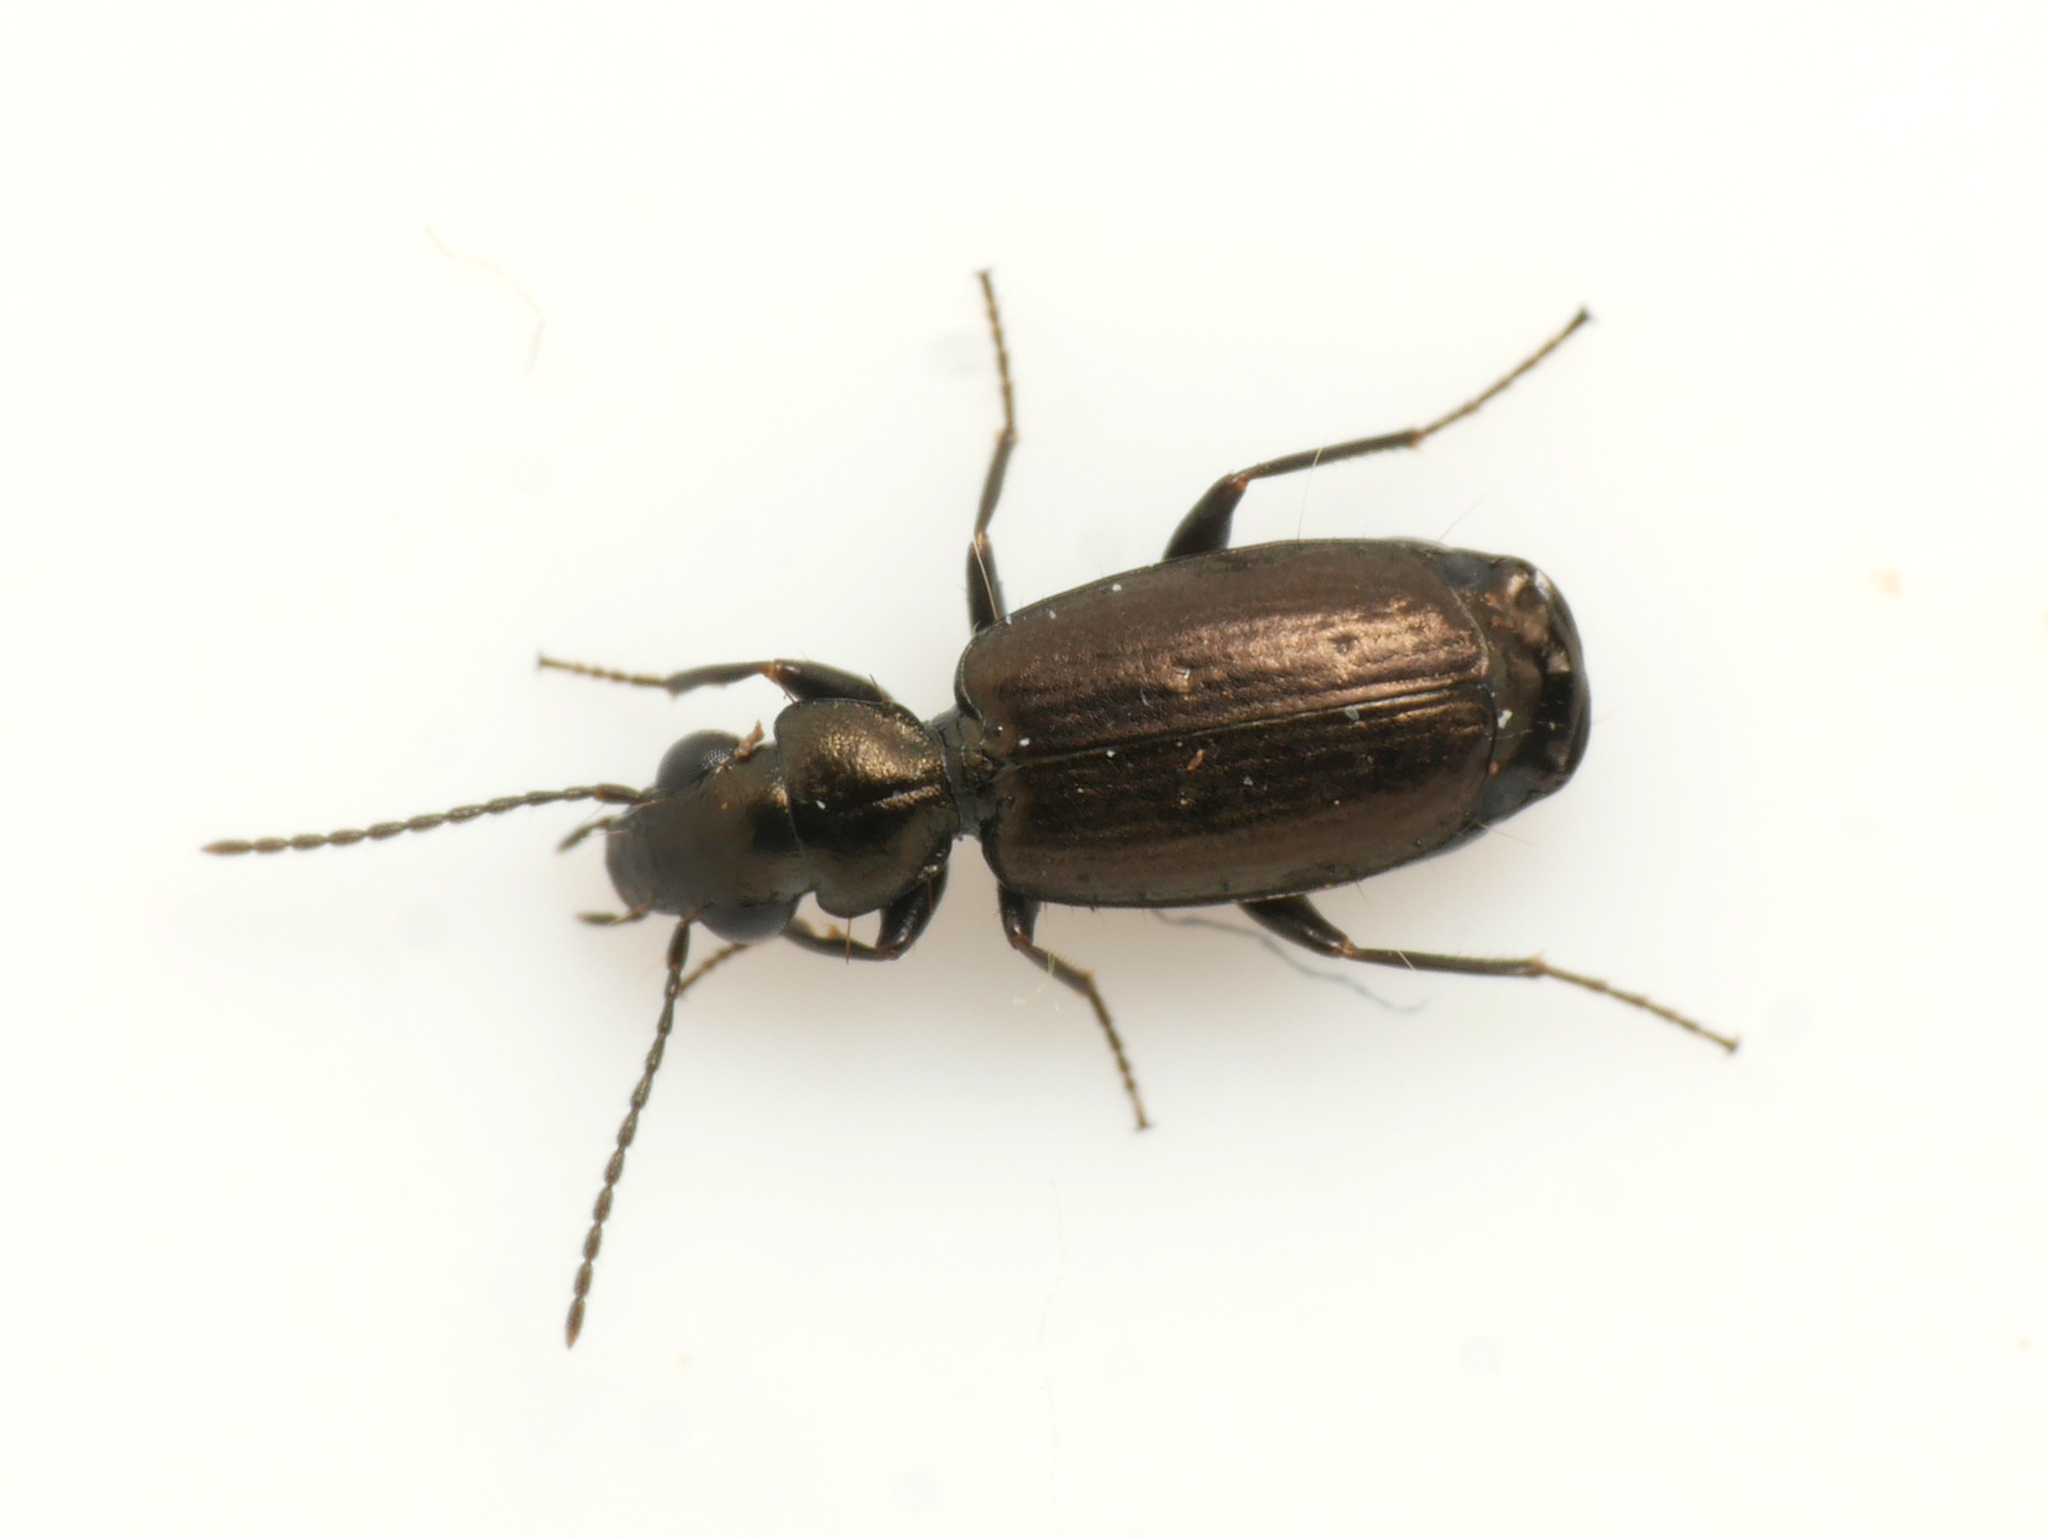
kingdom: Animalia
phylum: Arthropoda
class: Insecta
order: Coleoptera
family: Carabidae
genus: Syntomus
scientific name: Syntomus foveatus
